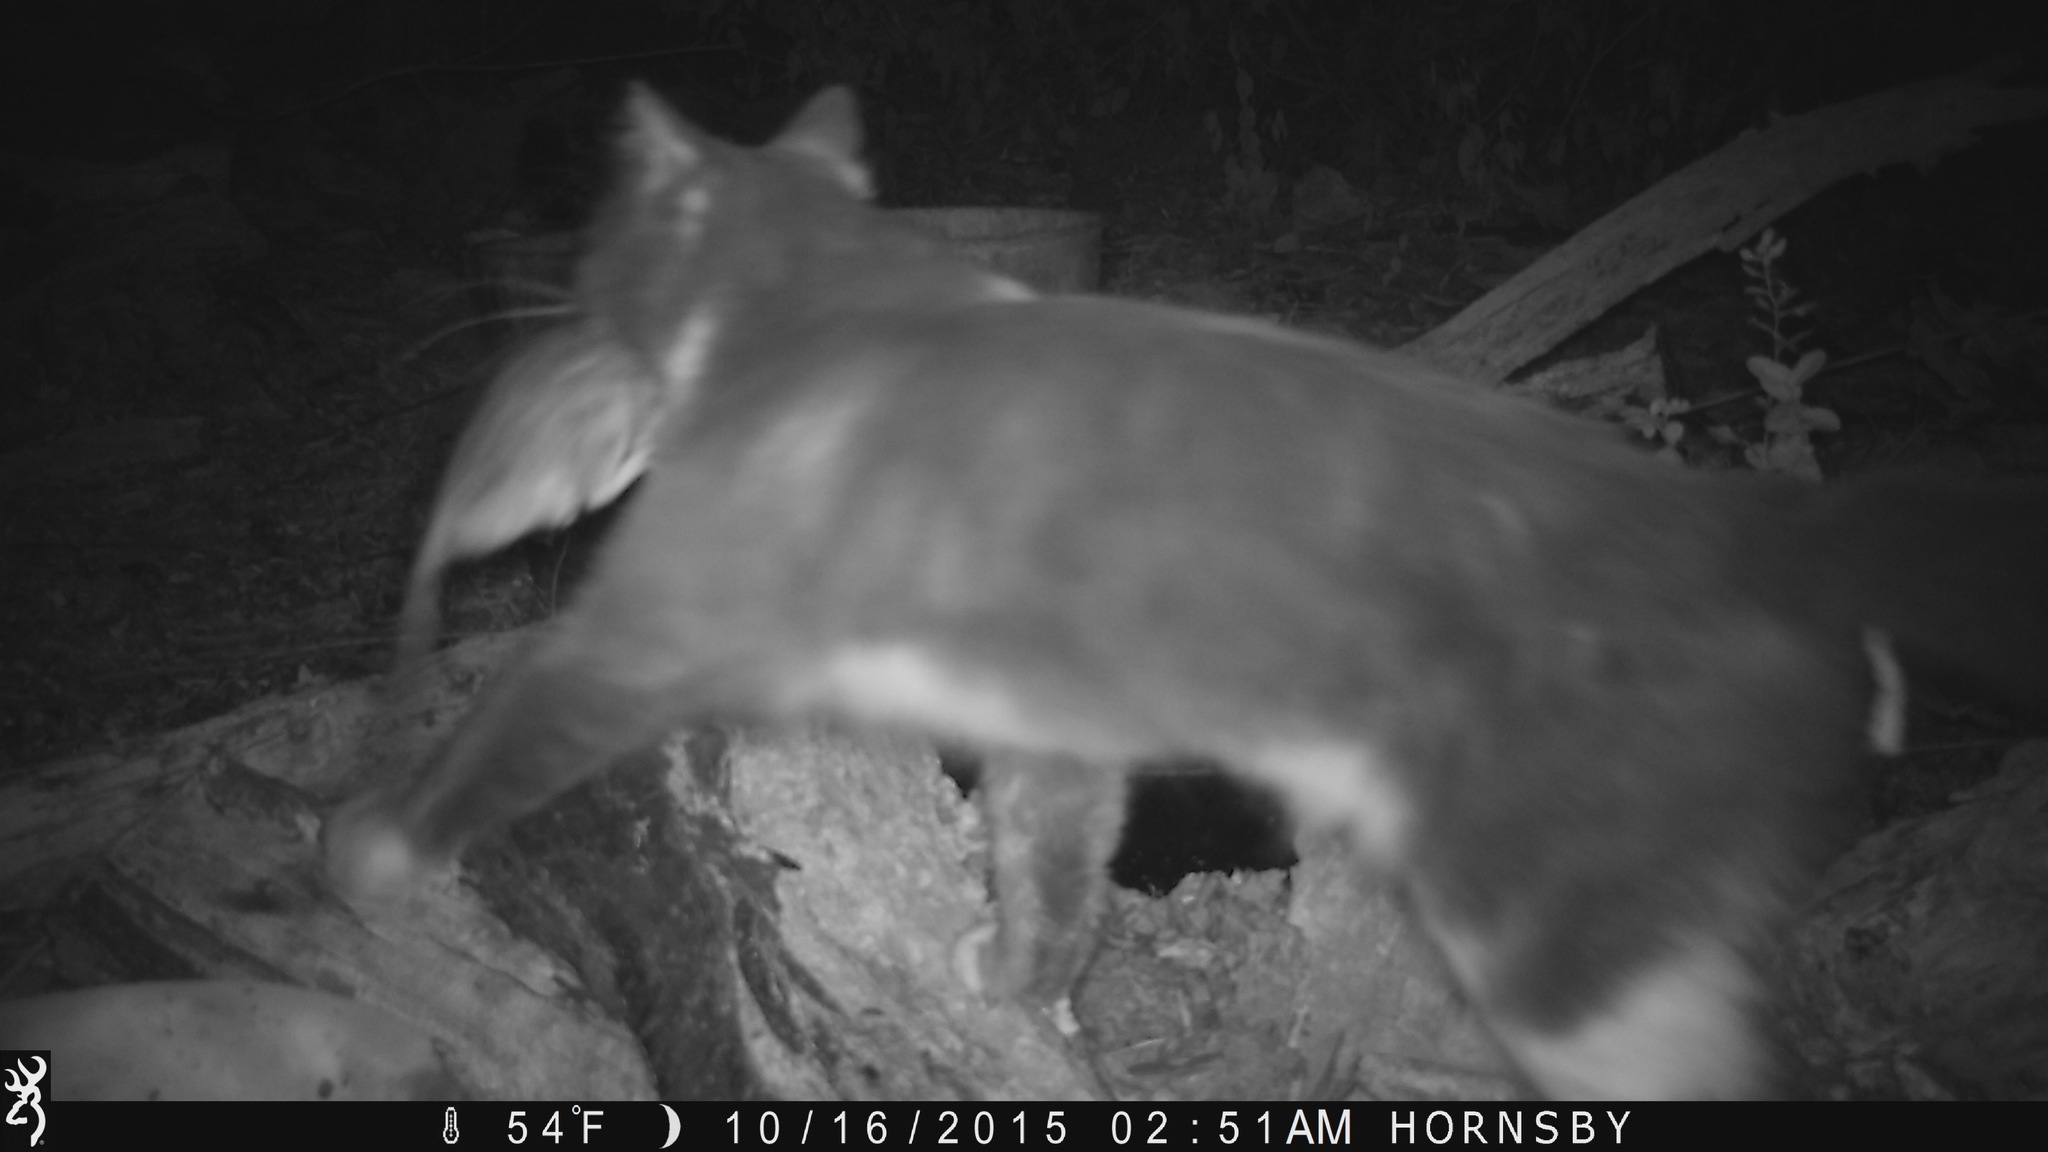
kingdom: Animalia
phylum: Chordata
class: Mammalia
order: Carnivora
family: Felidae
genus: Felis
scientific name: Felis catus
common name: Domestic cat
